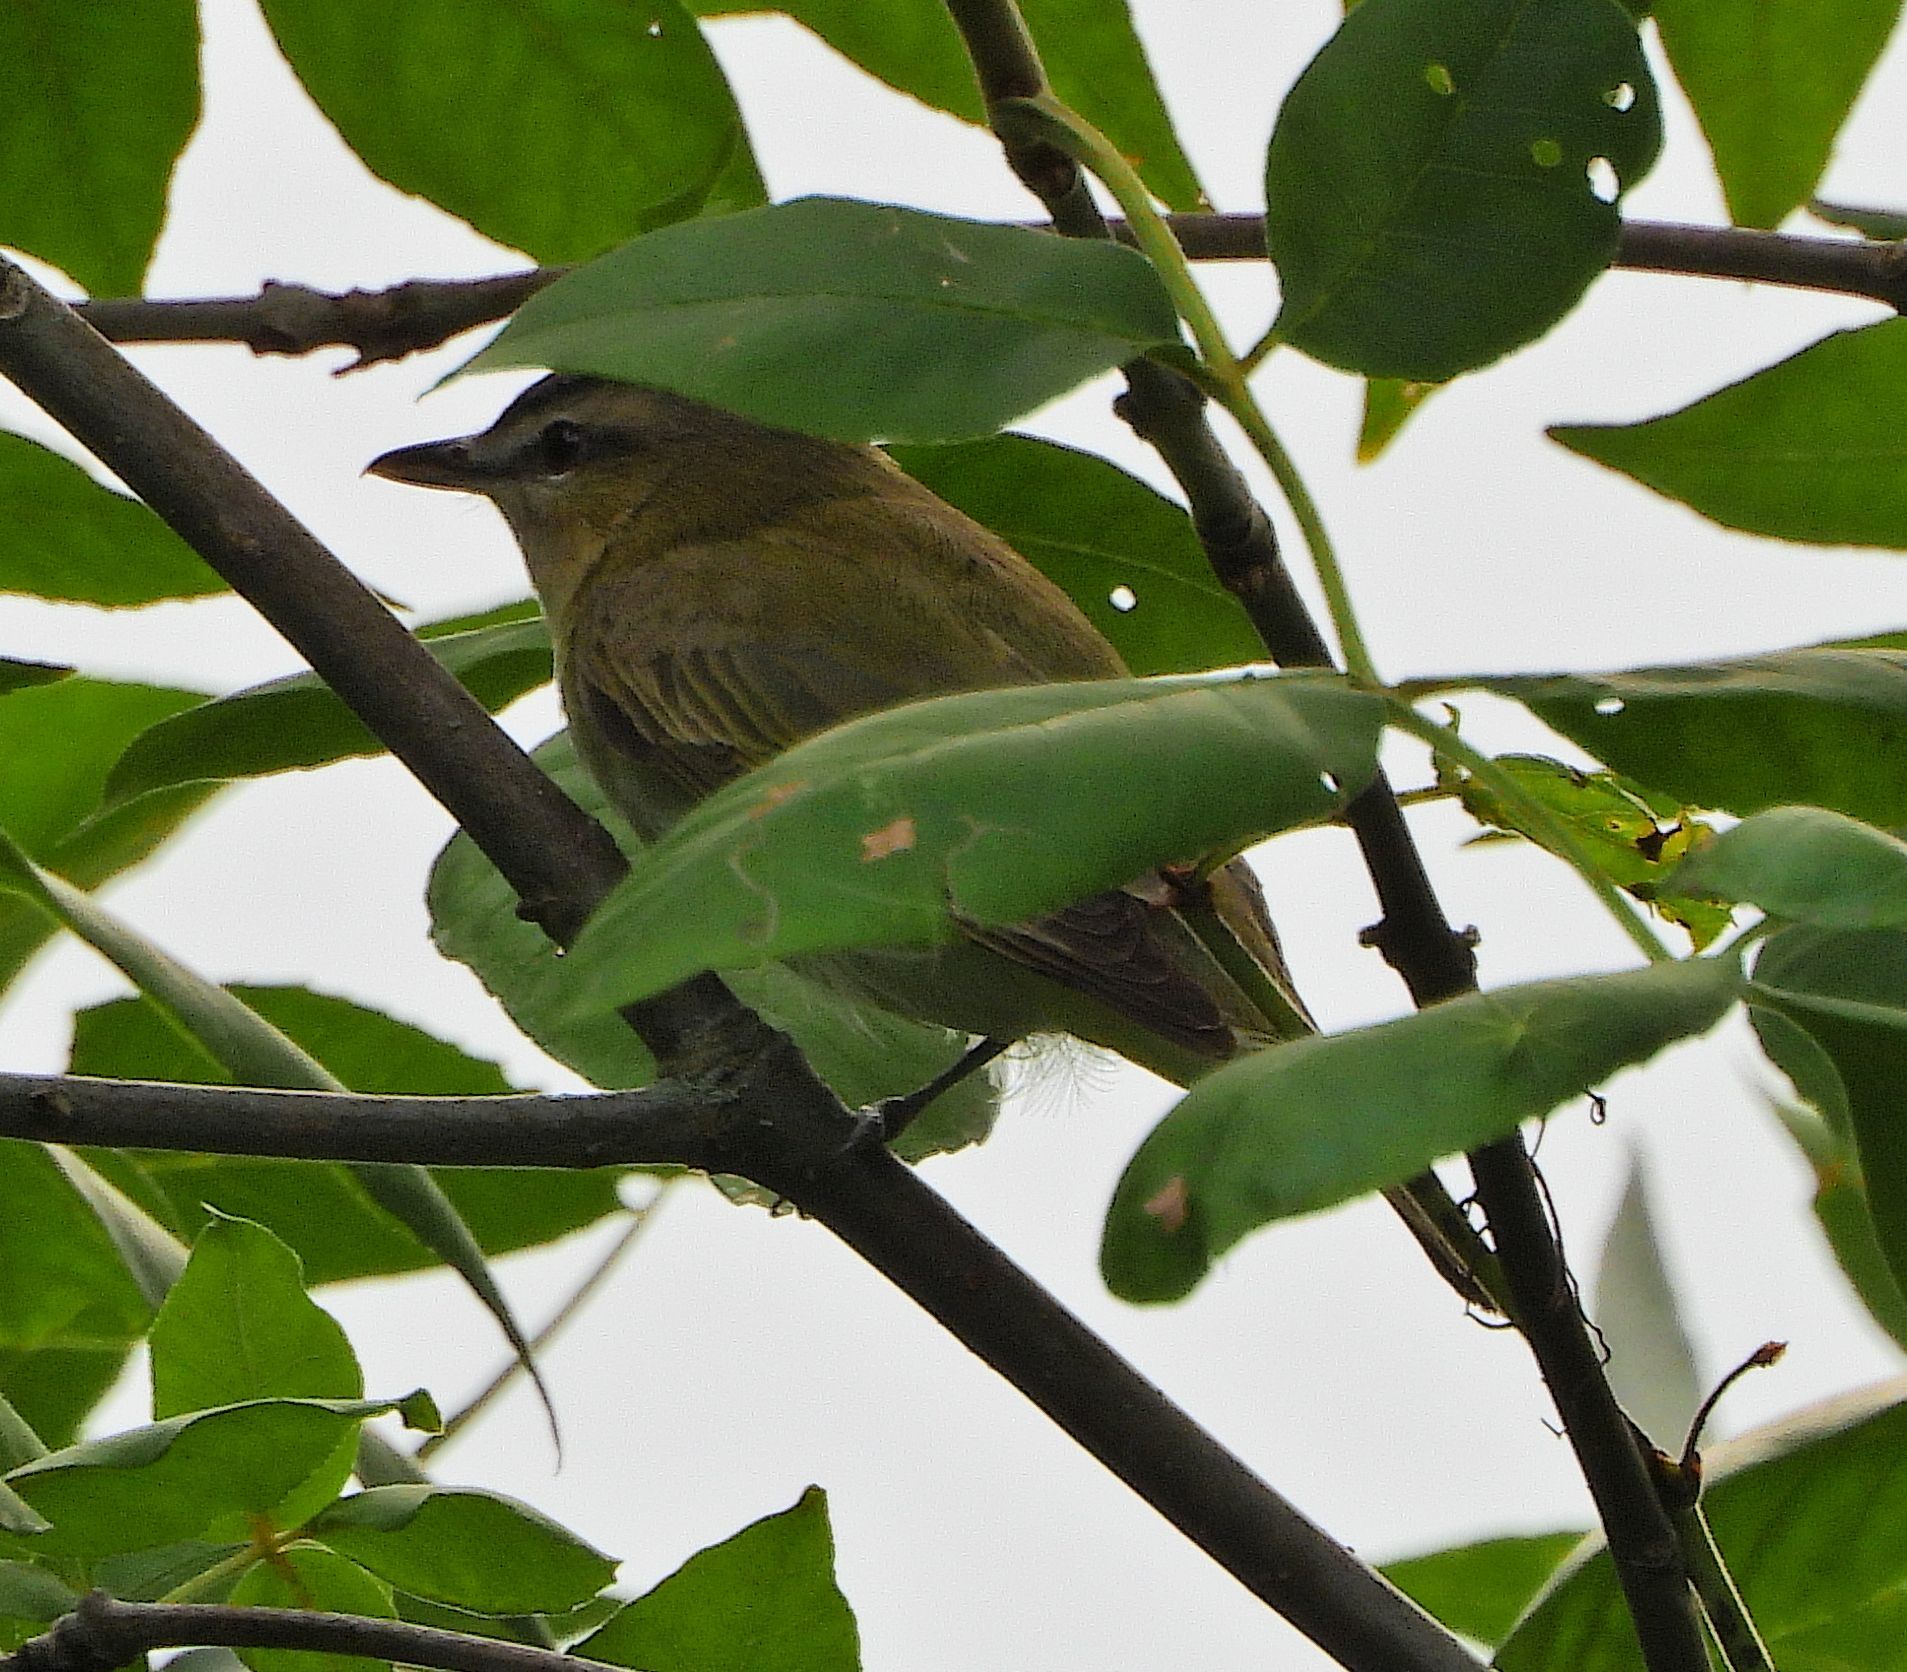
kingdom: Animalia
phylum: Chordata
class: Aves
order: Passeriformes
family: Vireonidae
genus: Vireo
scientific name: Vireo olivaceus
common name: Red-eyed vireo
